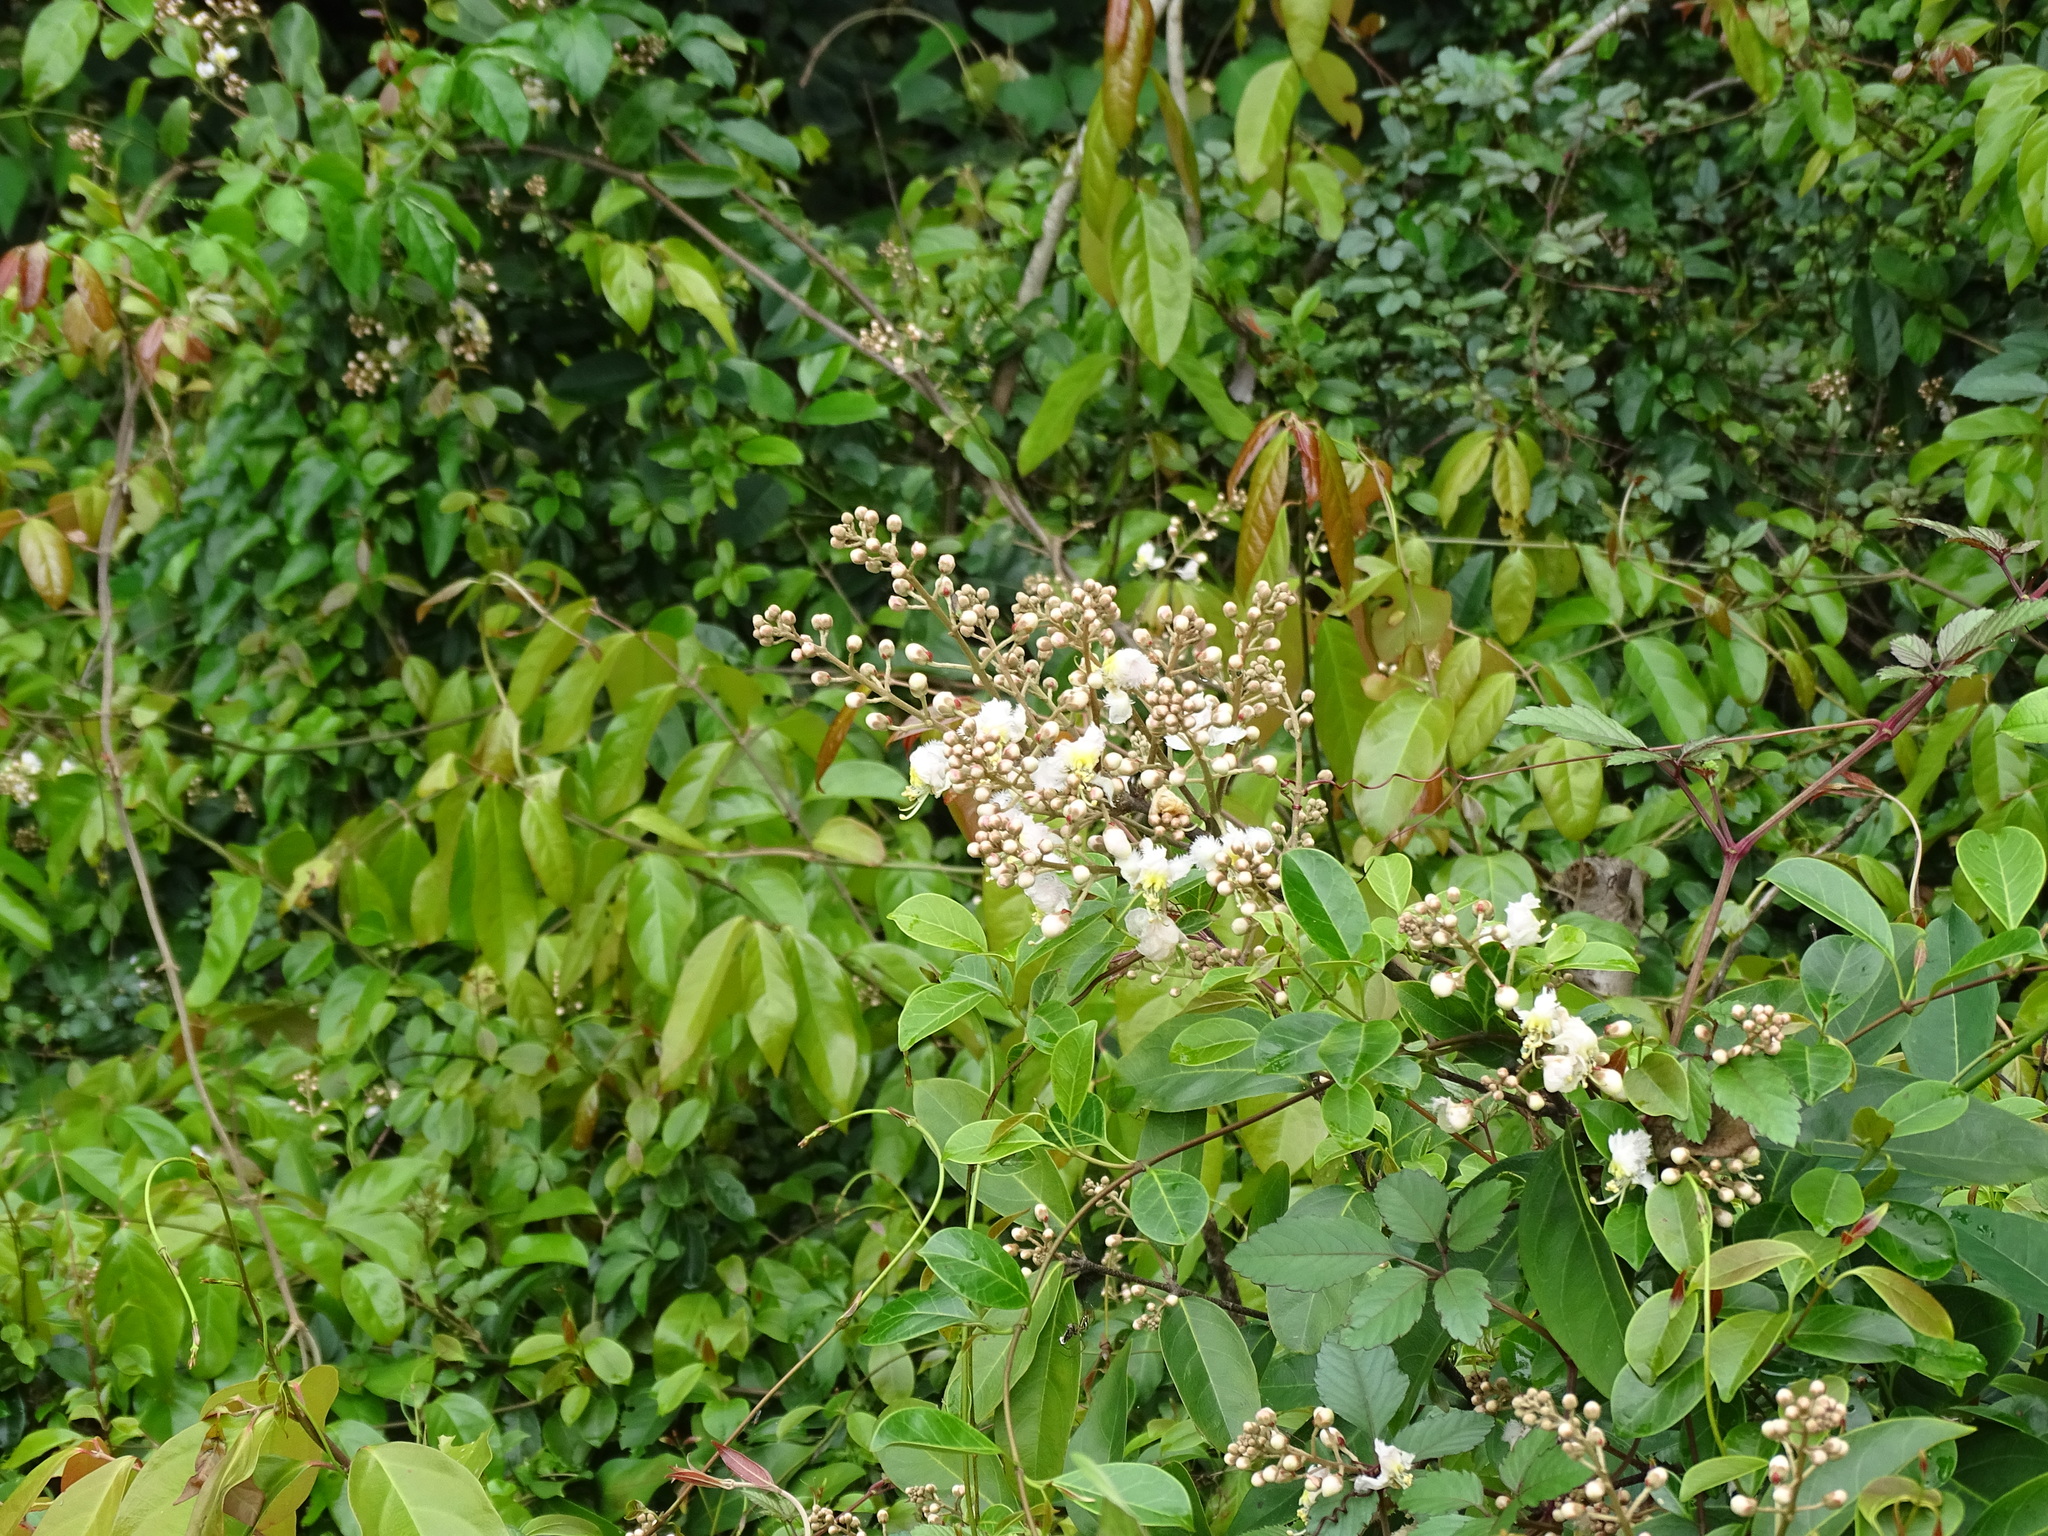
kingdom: Plantae
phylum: Tracheophyta
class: Magnoliopsida
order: Malpighiales
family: Malpighiaceae
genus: Hiptage
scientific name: Hiptage benghalensis
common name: Hiptage
